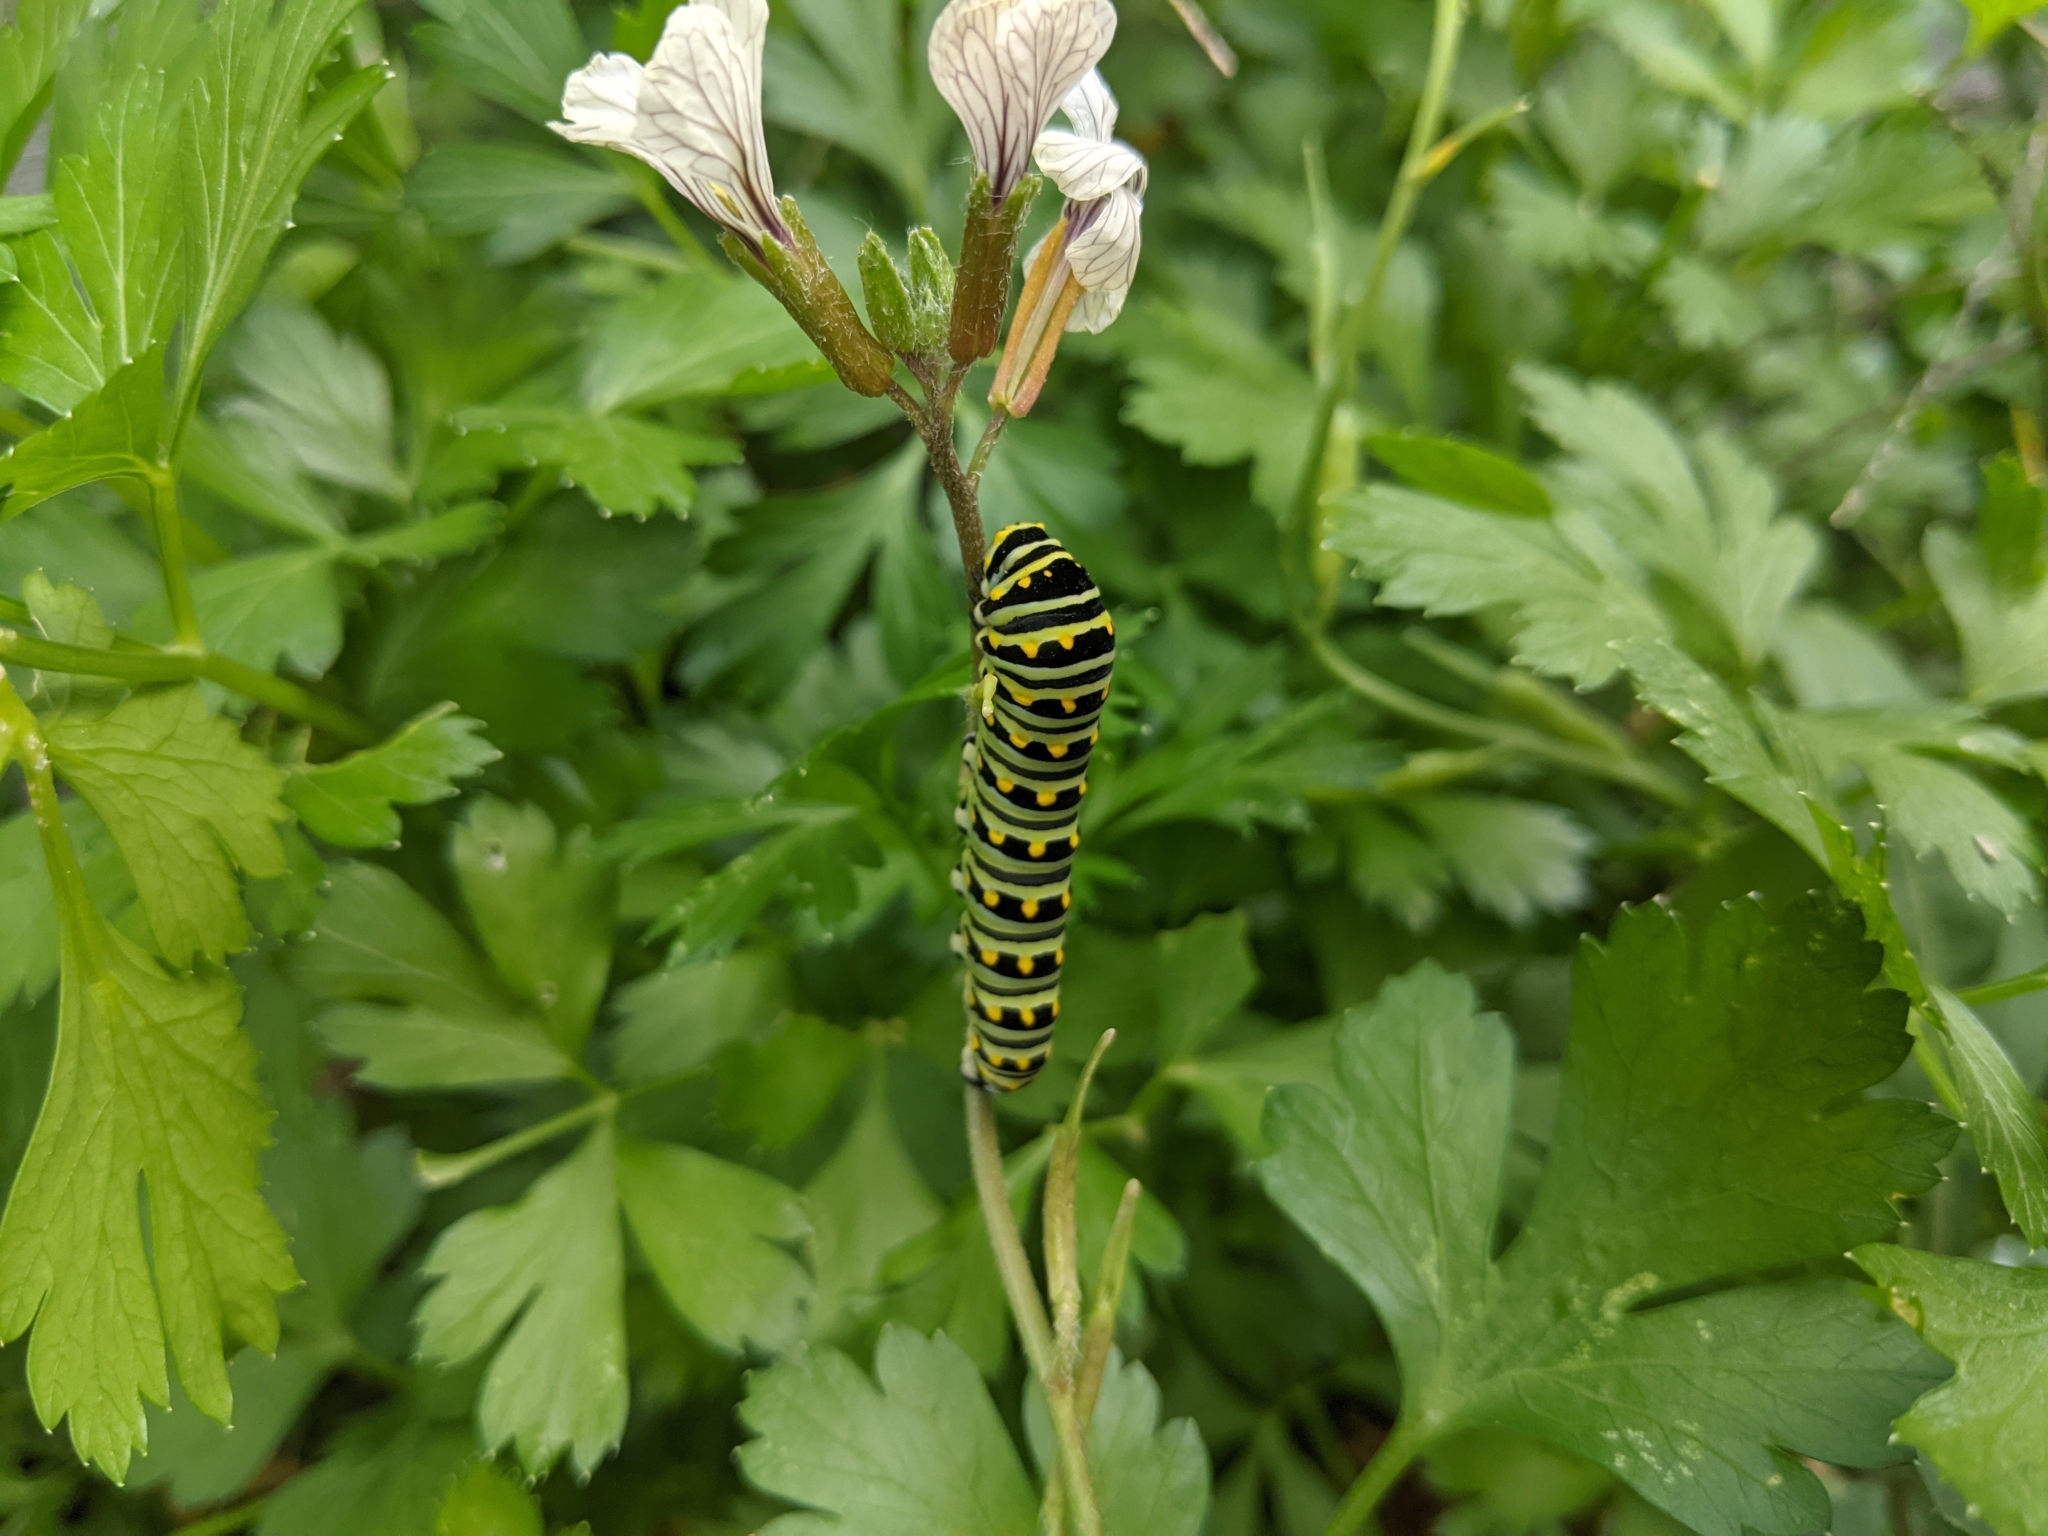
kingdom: Animalia
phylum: Arthropoda
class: Insecta
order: Lepidoptera
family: Papilionidae
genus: Papilio
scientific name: Papilio polyxenes
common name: Black swallowtail
